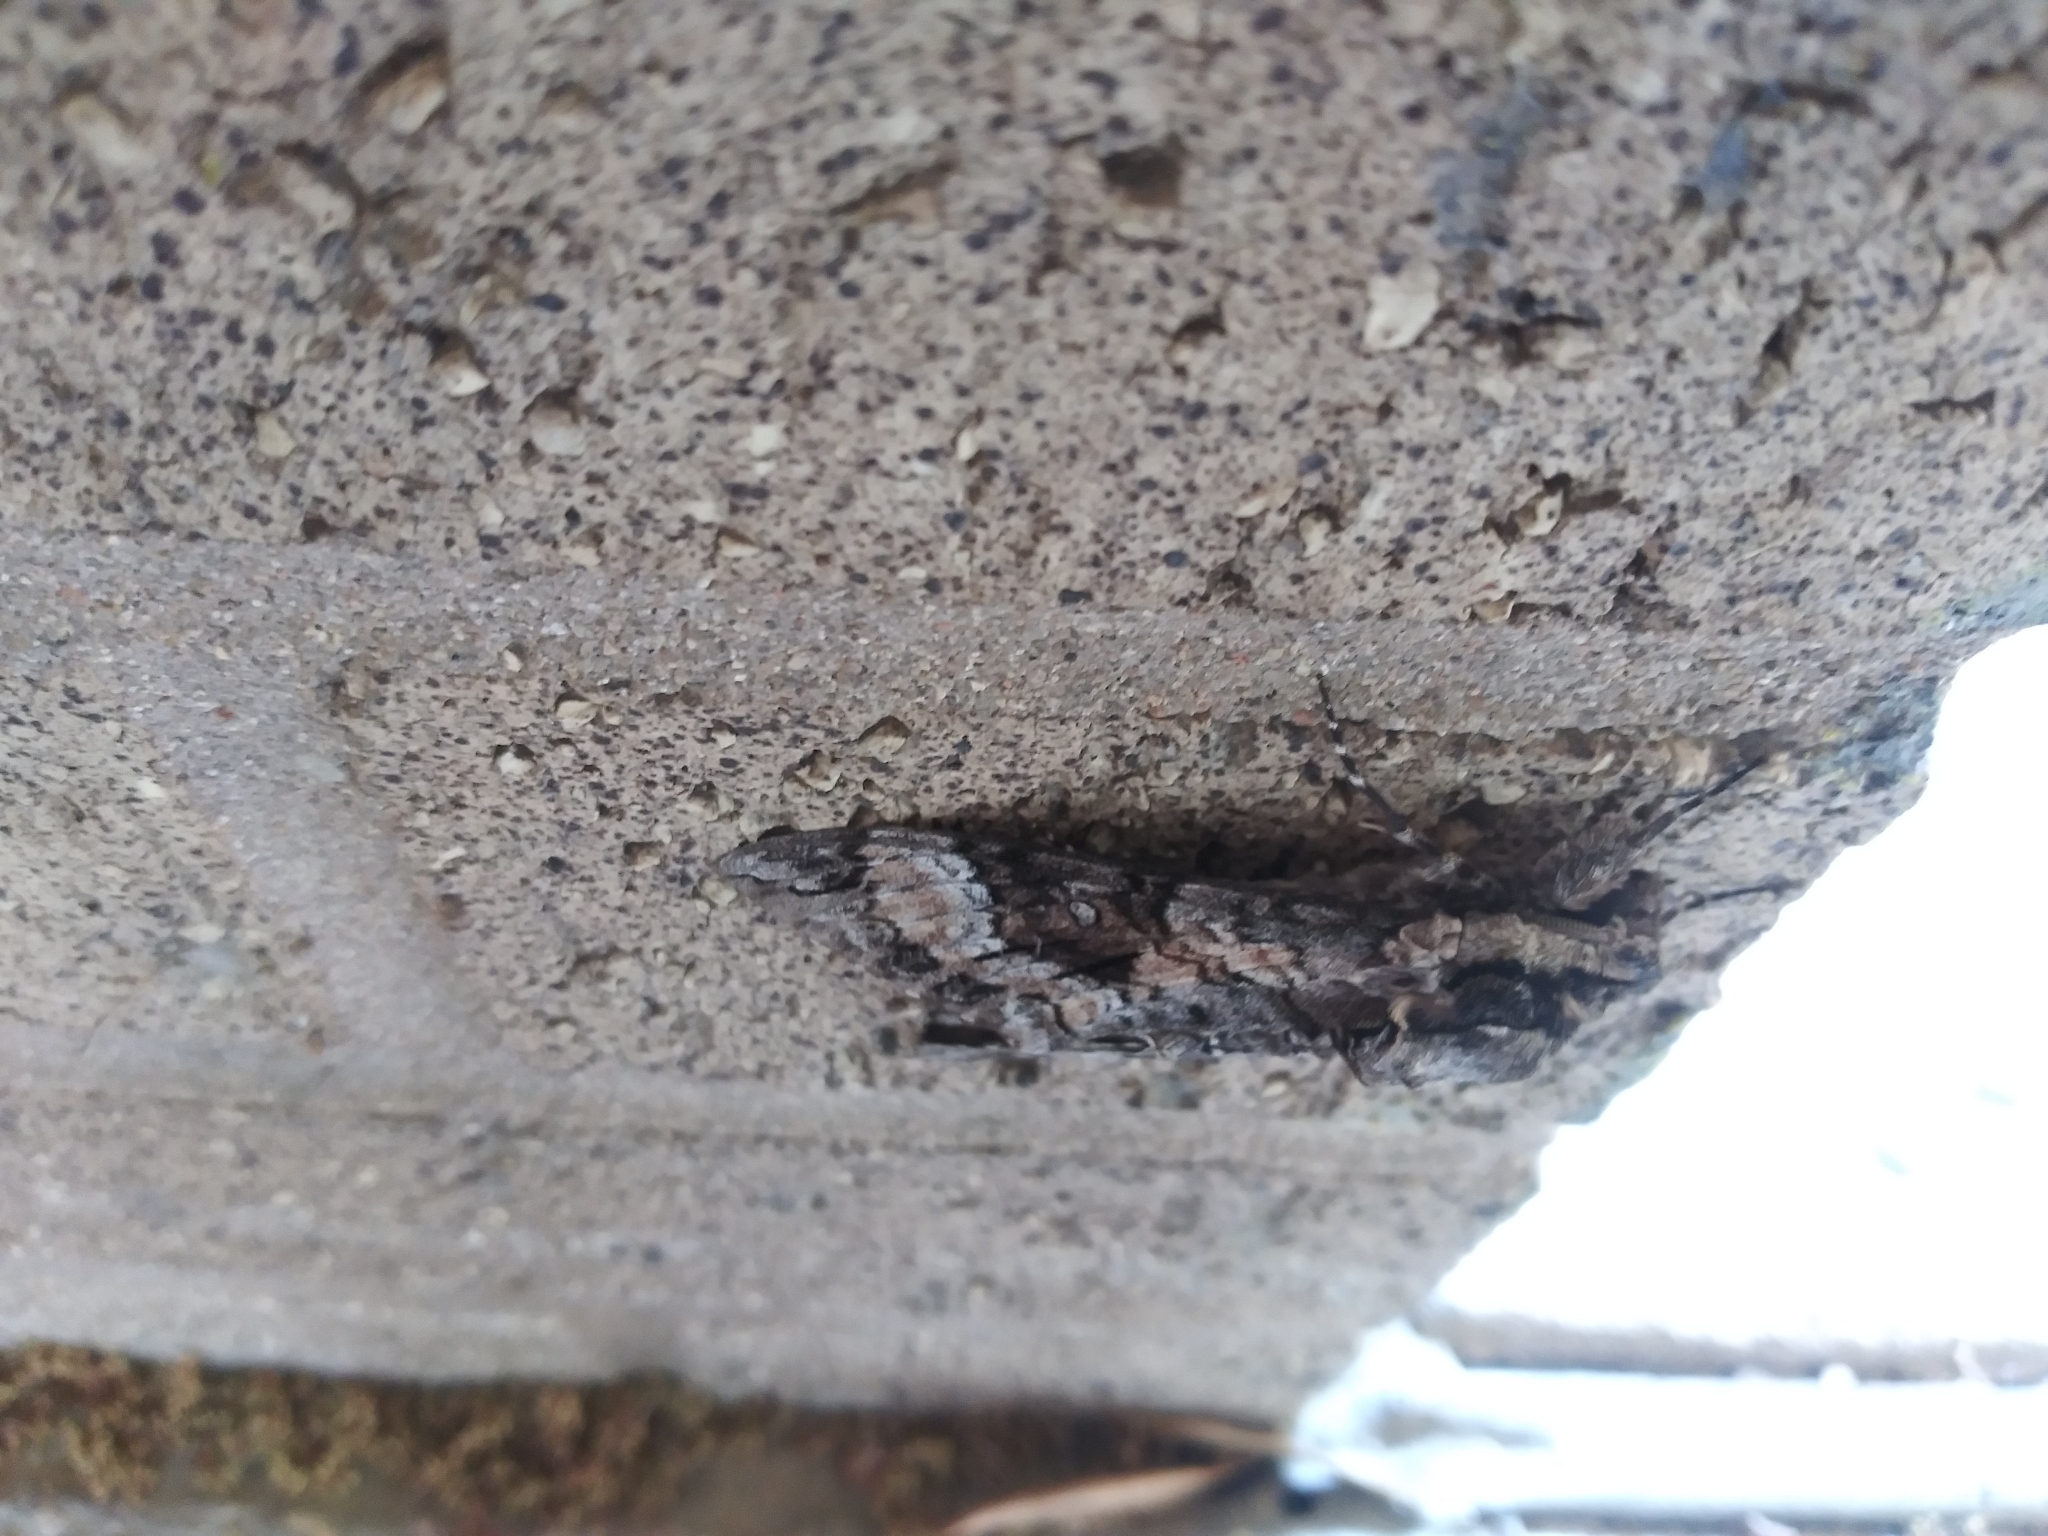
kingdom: Animalia
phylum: Arthropoda
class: Insecta
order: Lepidoptera
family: Sphingidae
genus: Agrius
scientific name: Agrius cingulata
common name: Pink-spotted hawkmoth
